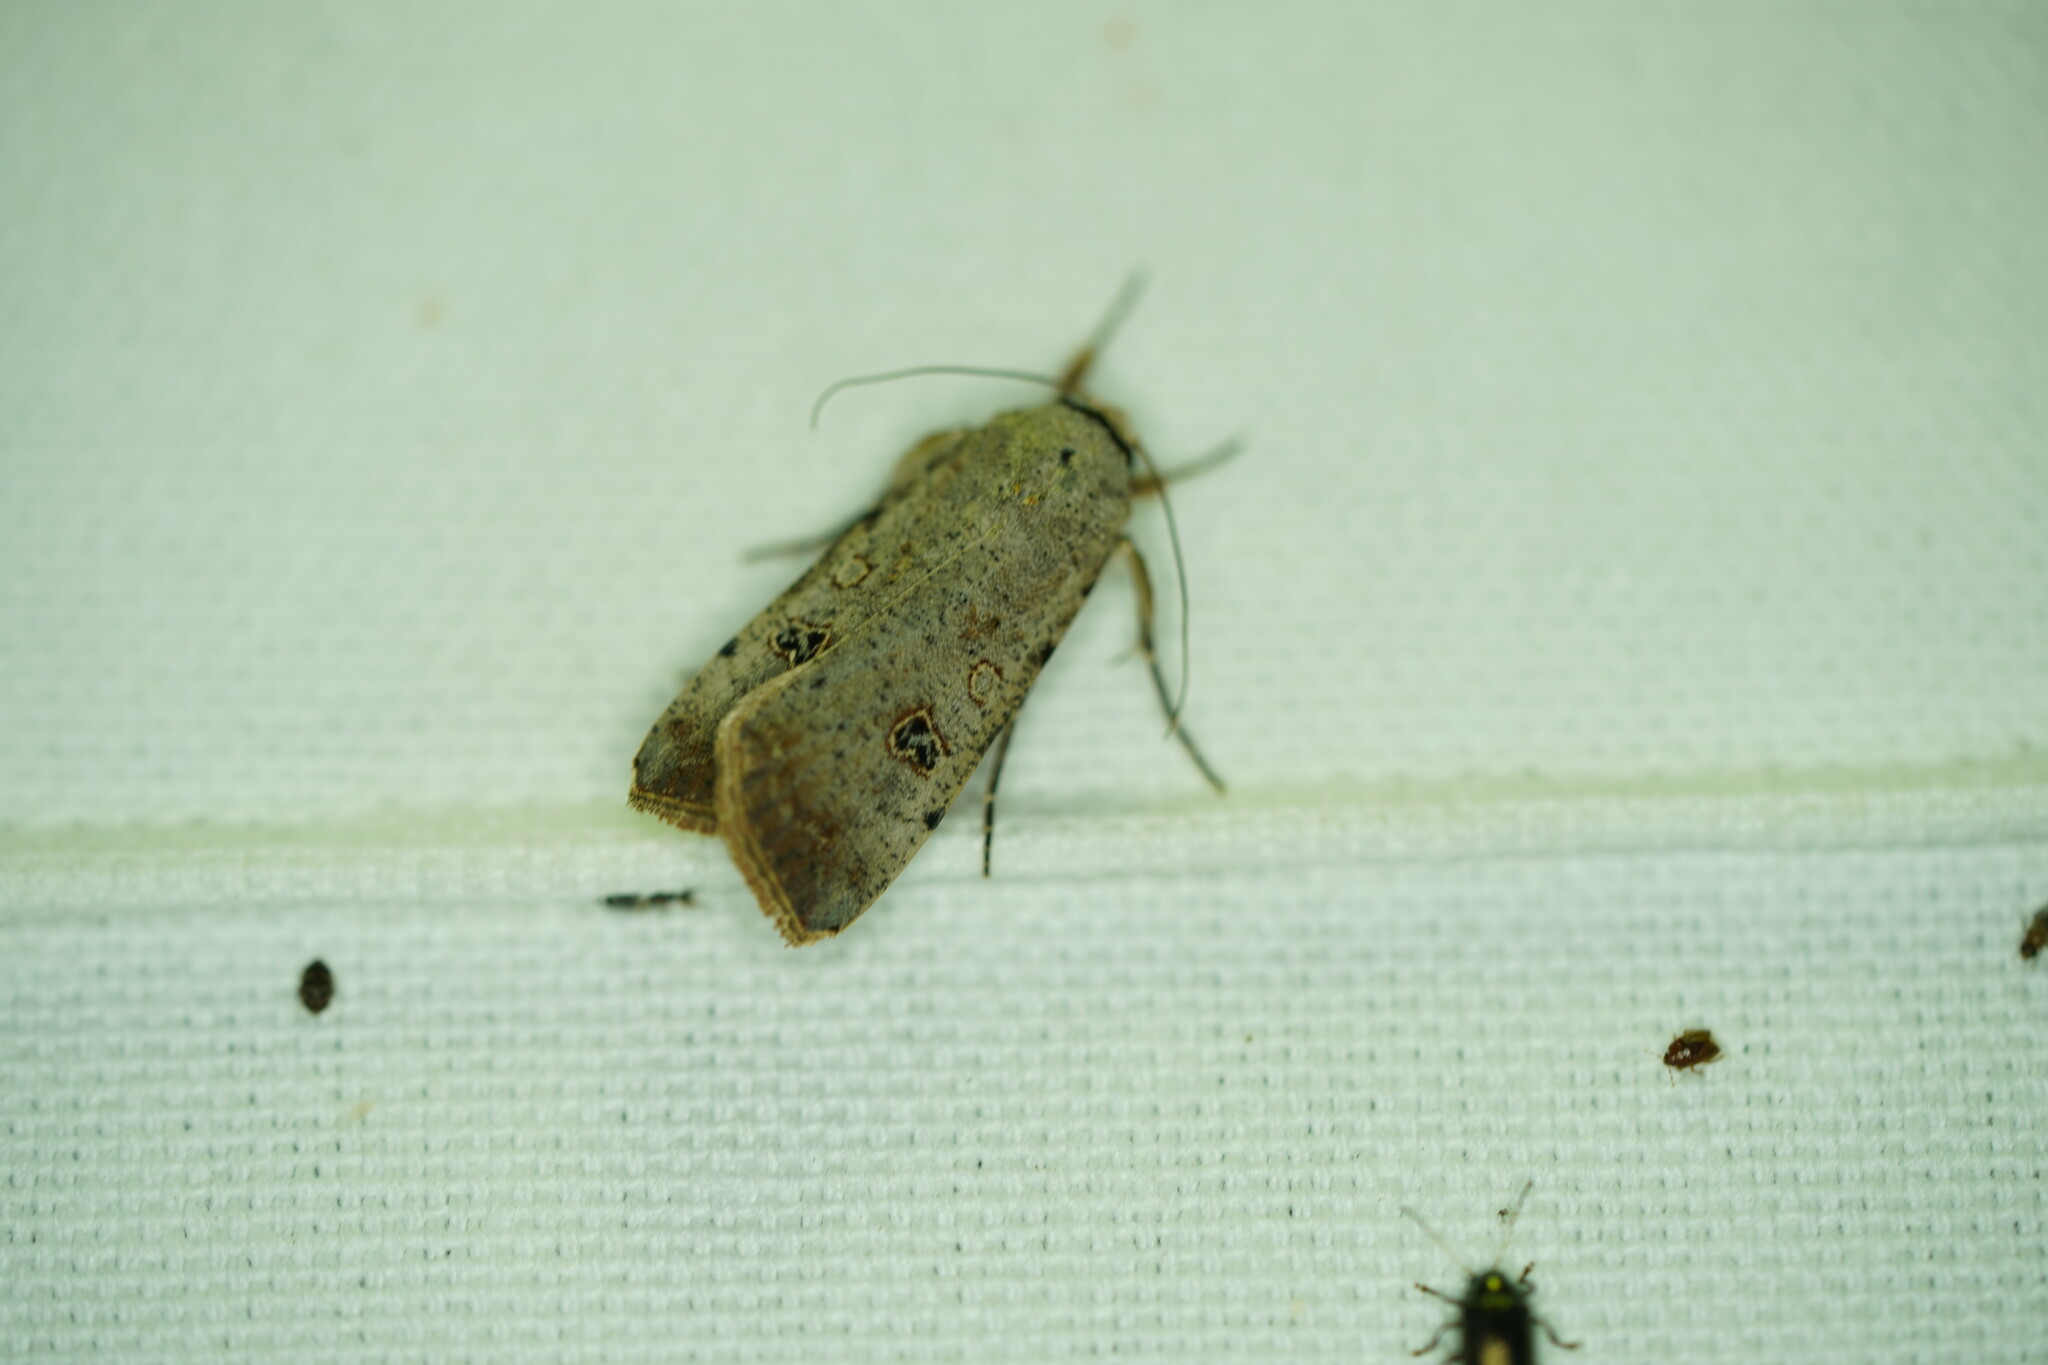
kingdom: Animalia
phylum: Arthropoda
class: Insecta
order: Lepidoptera
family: Noctuidae
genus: Anicla
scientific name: Anicla infecta
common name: Green cutworm
